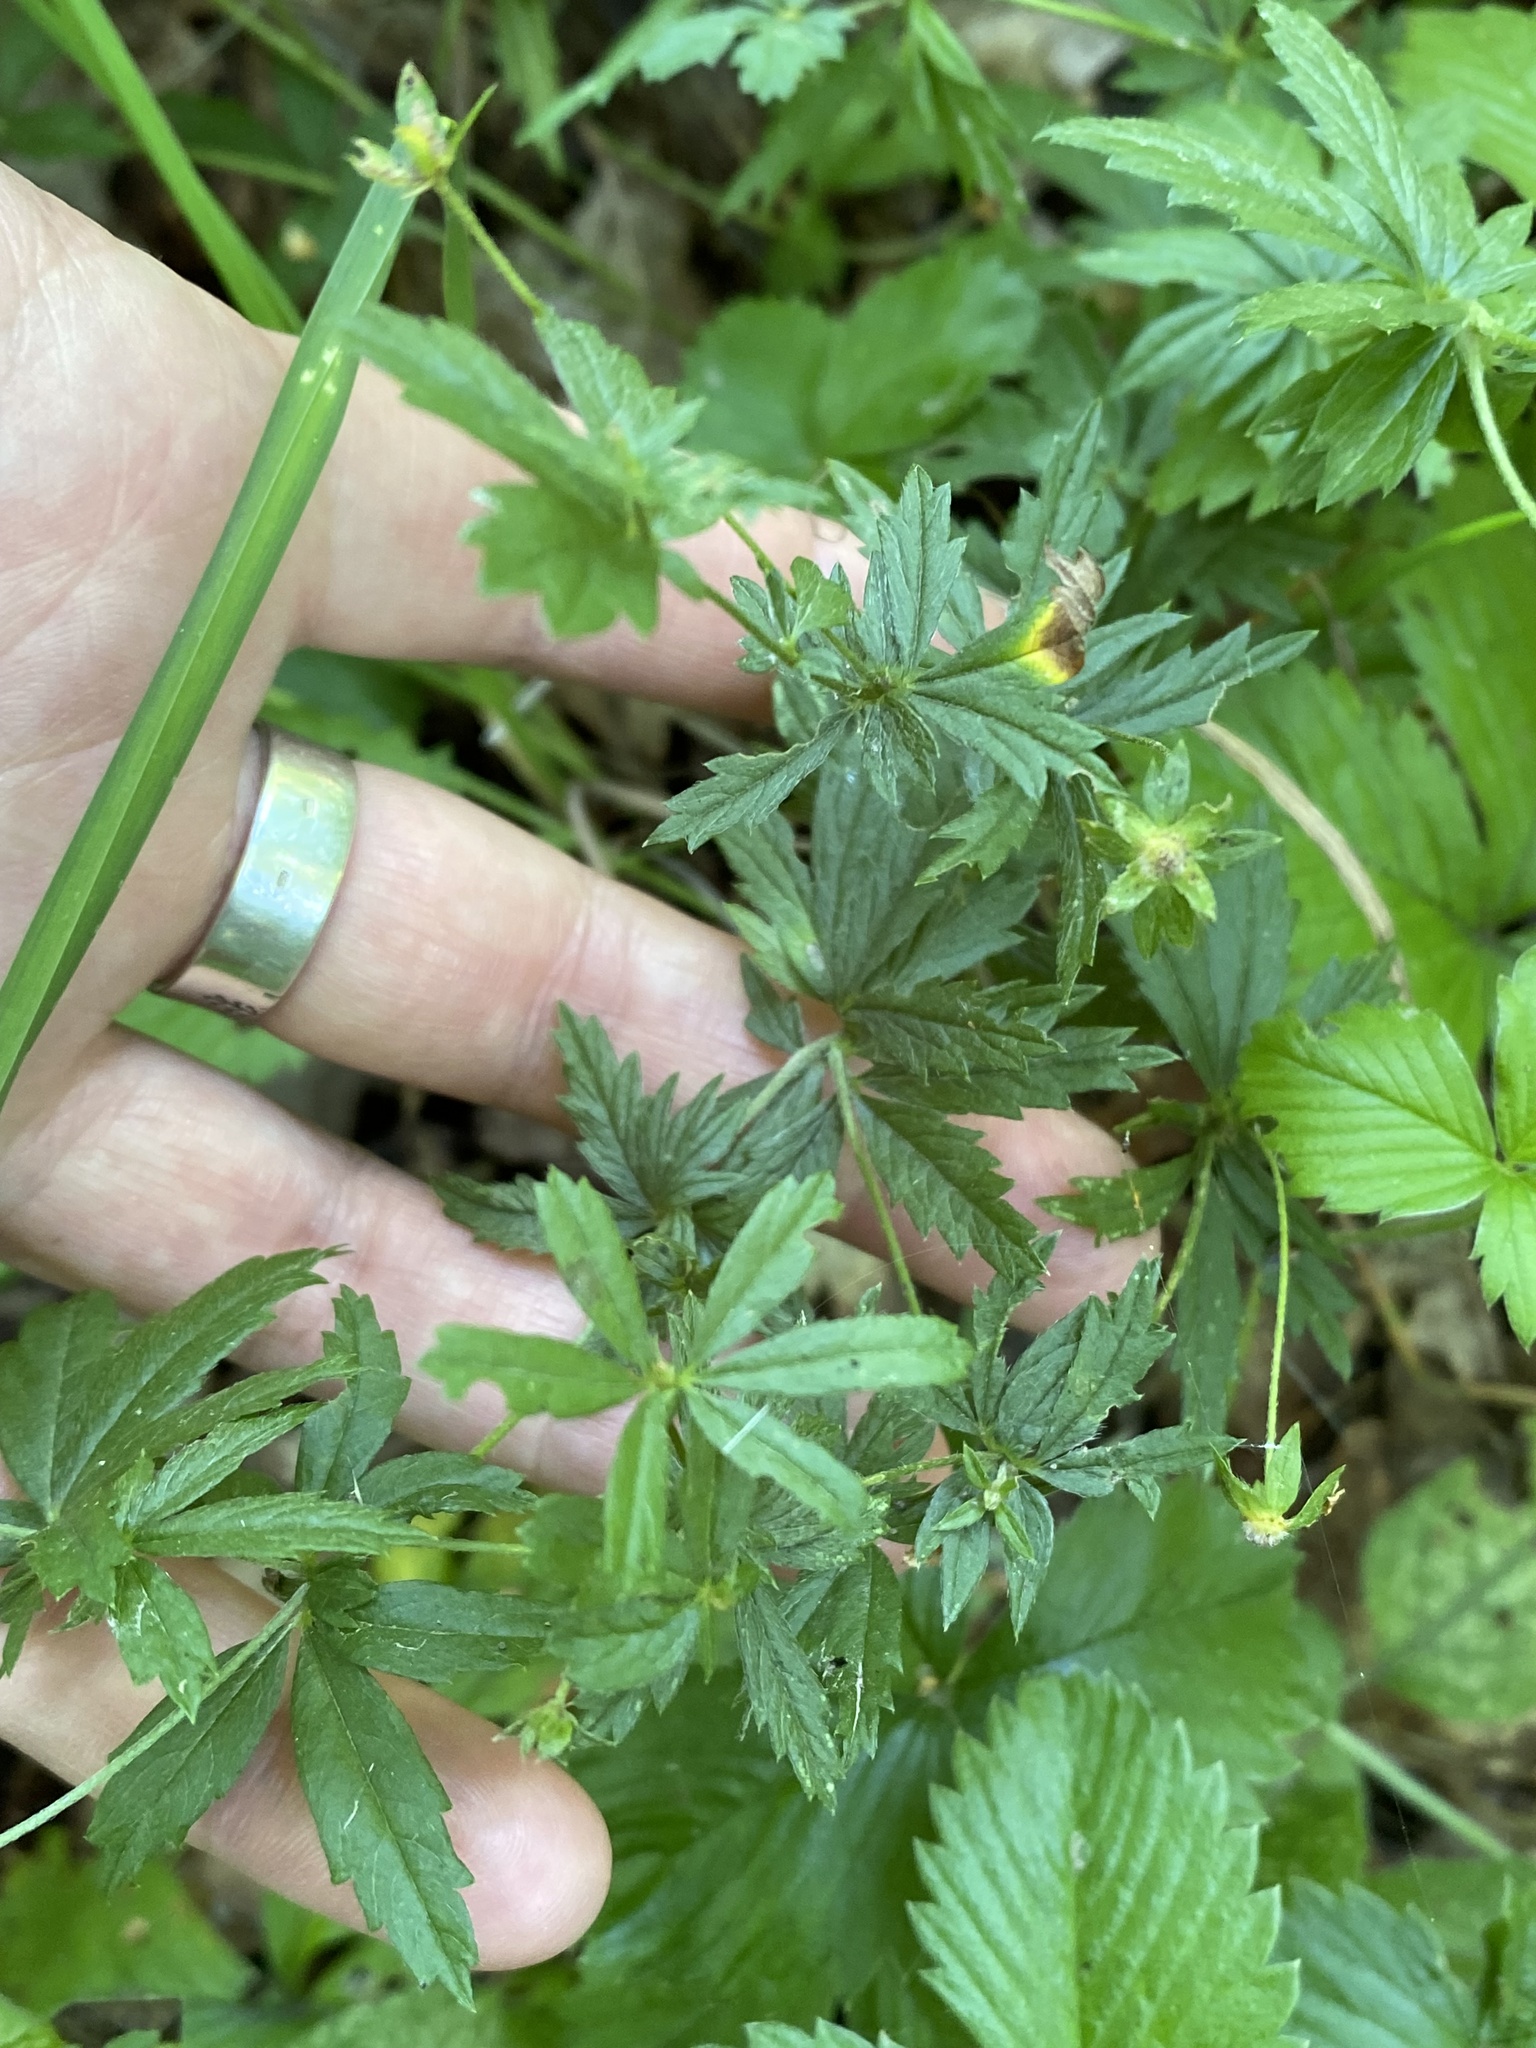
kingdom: Plantae
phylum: Tracheophyta
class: Magnoliopsida
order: Rosales
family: Rosaceae
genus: Potentilla
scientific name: Potentilla erecta
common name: Tormentil
